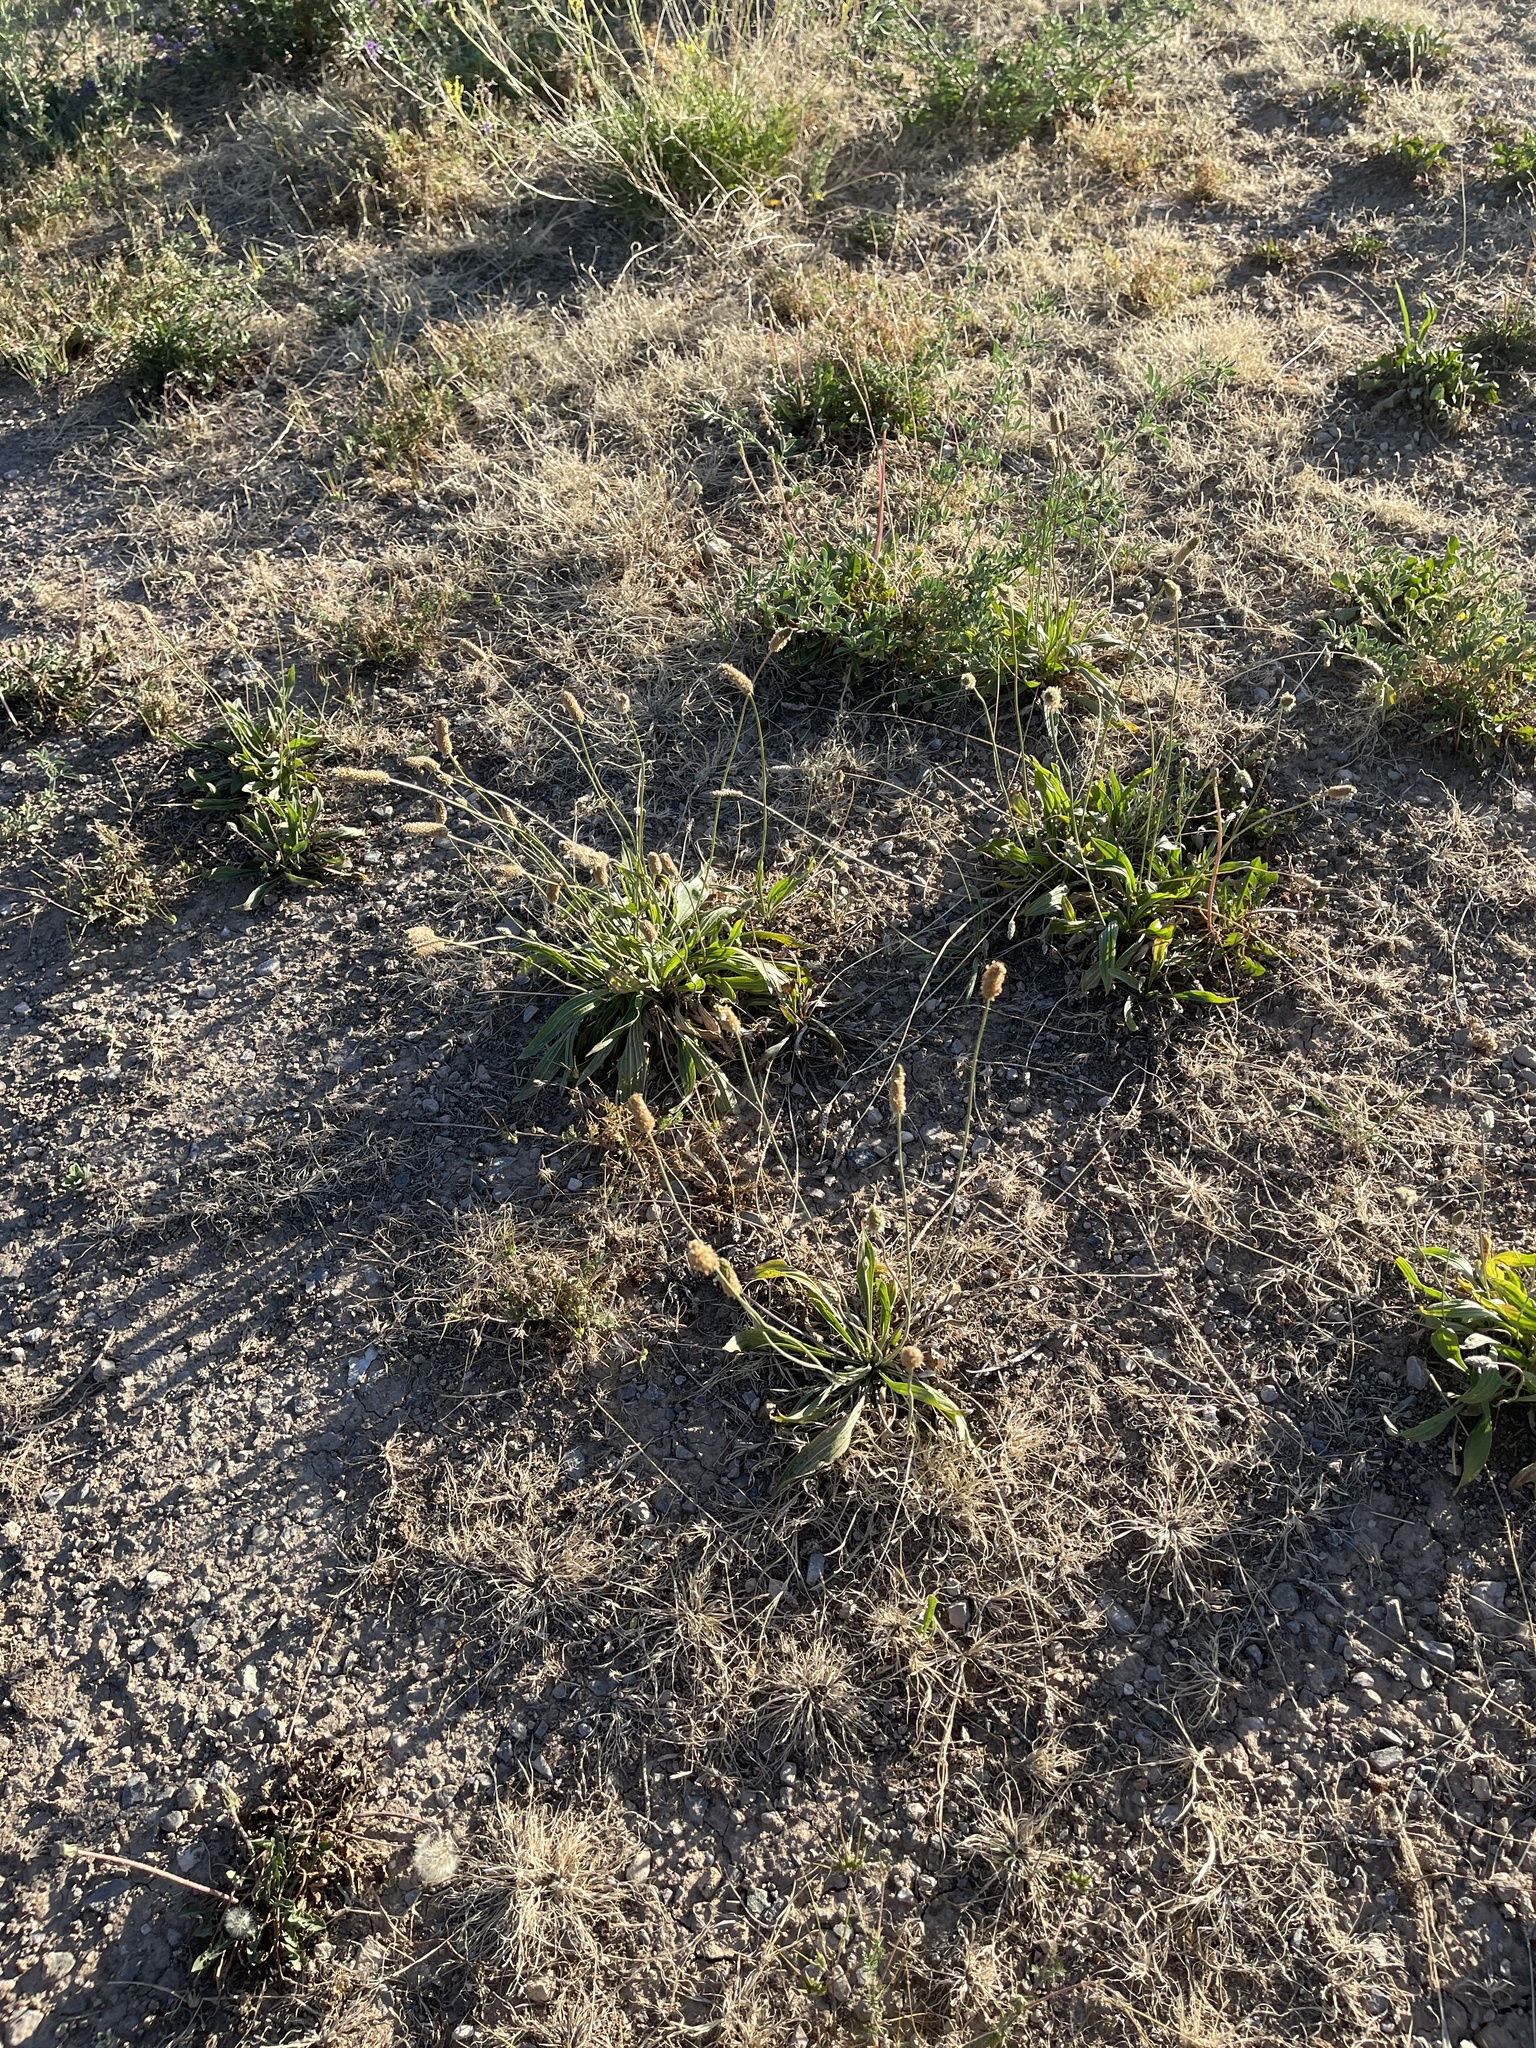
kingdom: Plantae
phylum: Tracheophyta
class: Magnoliopsida
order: Lamiales
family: Plantaginaceae
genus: Plantago
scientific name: Plantago lanceolata
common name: Ribwort plantain
